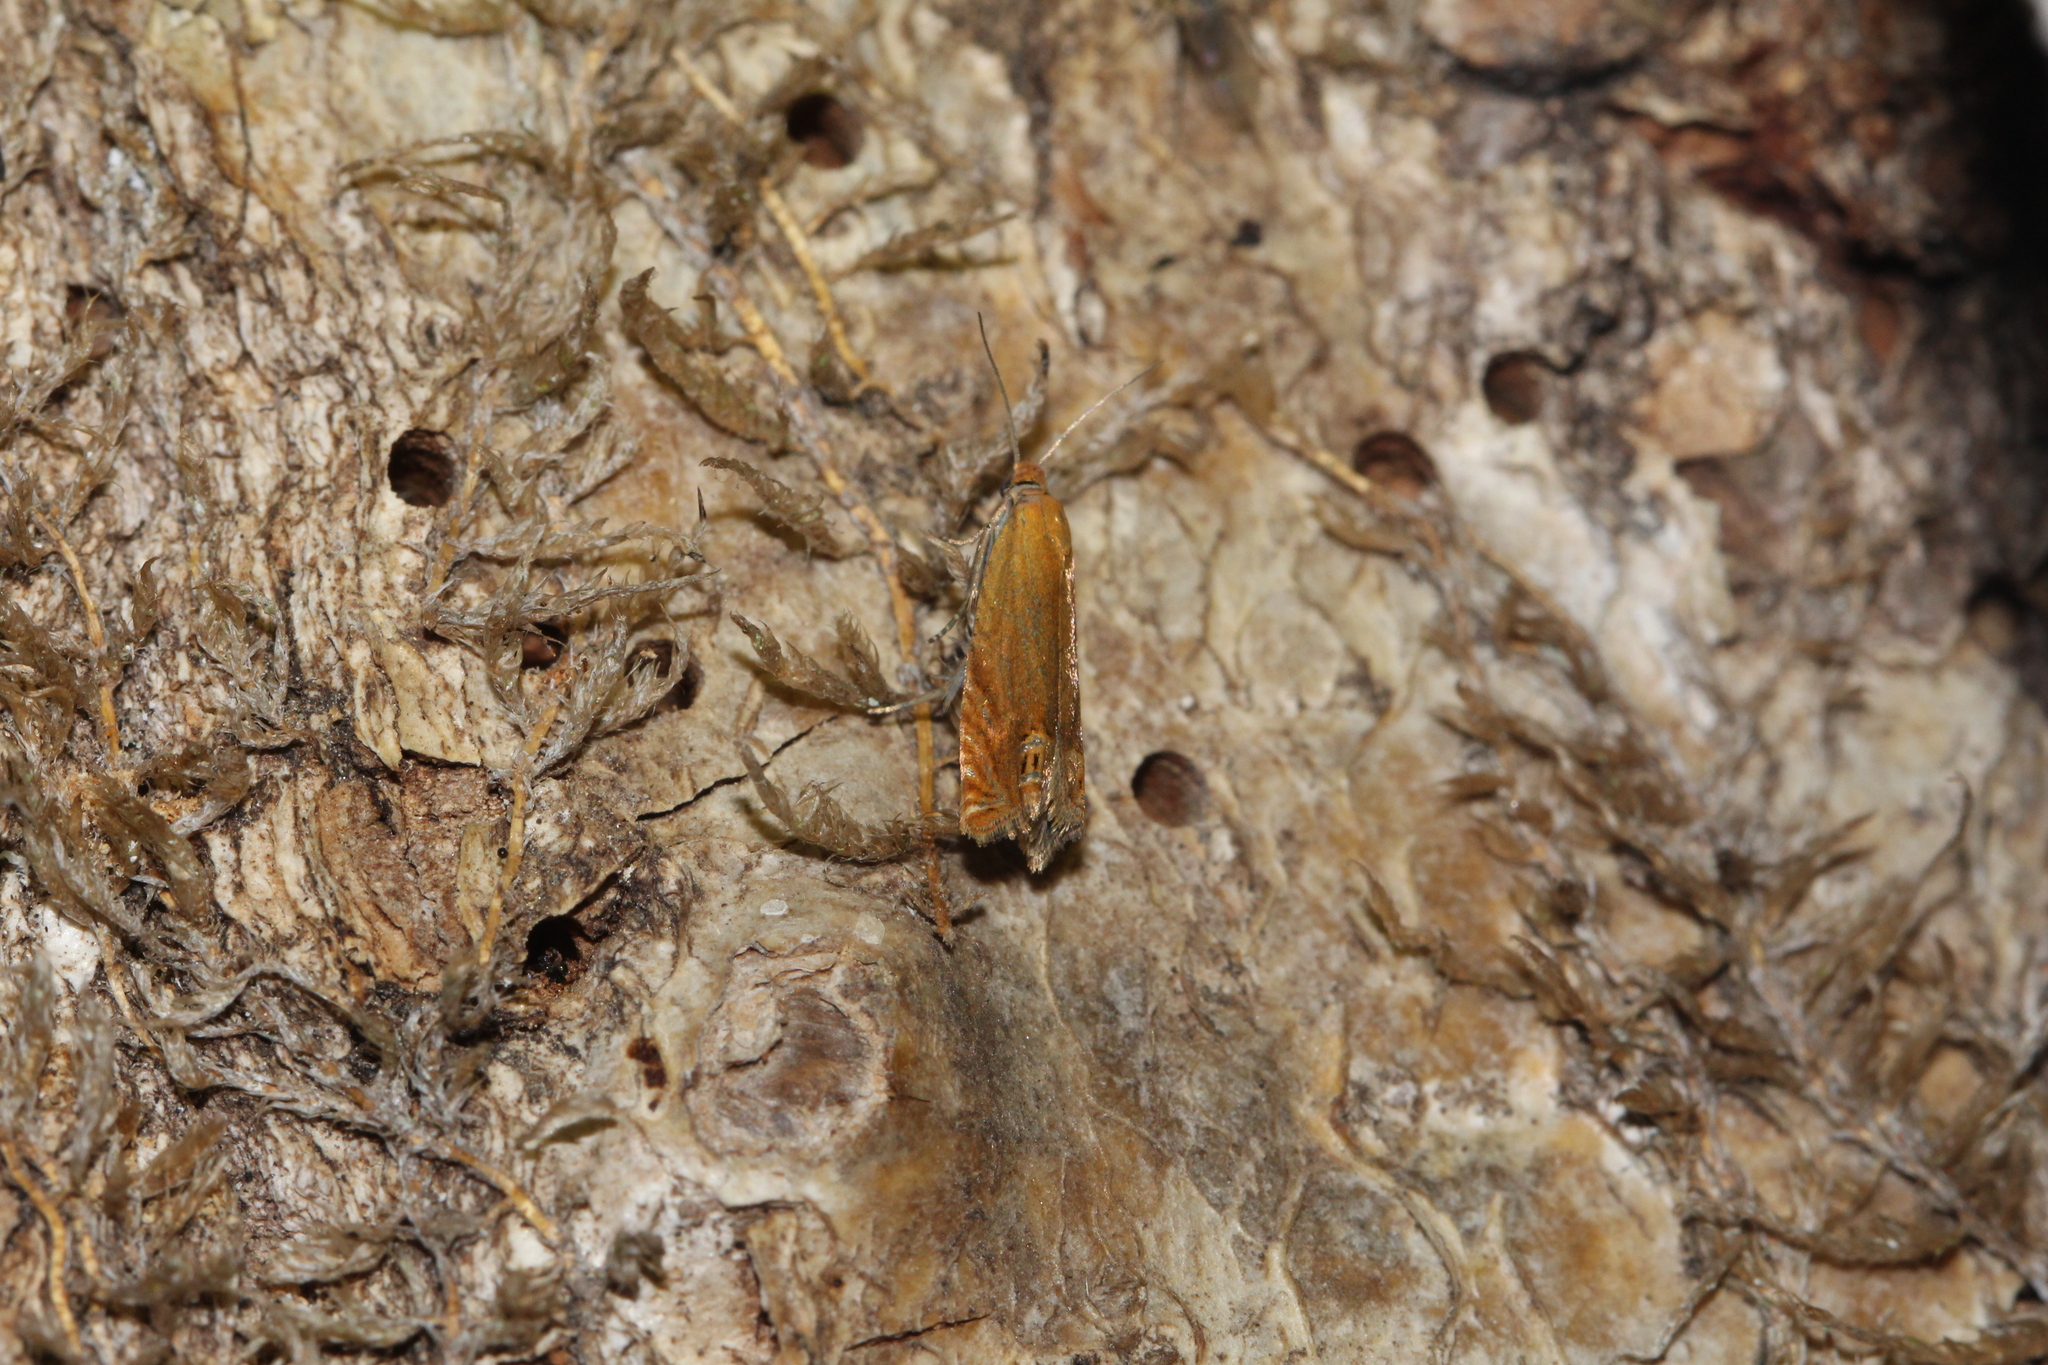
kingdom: Animalia
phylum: Arthropoda
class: Insecta
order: Lepidoptera
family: Tortricidae
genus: Lathronympha
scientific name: Lathronympha strigana
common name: Red piercer
